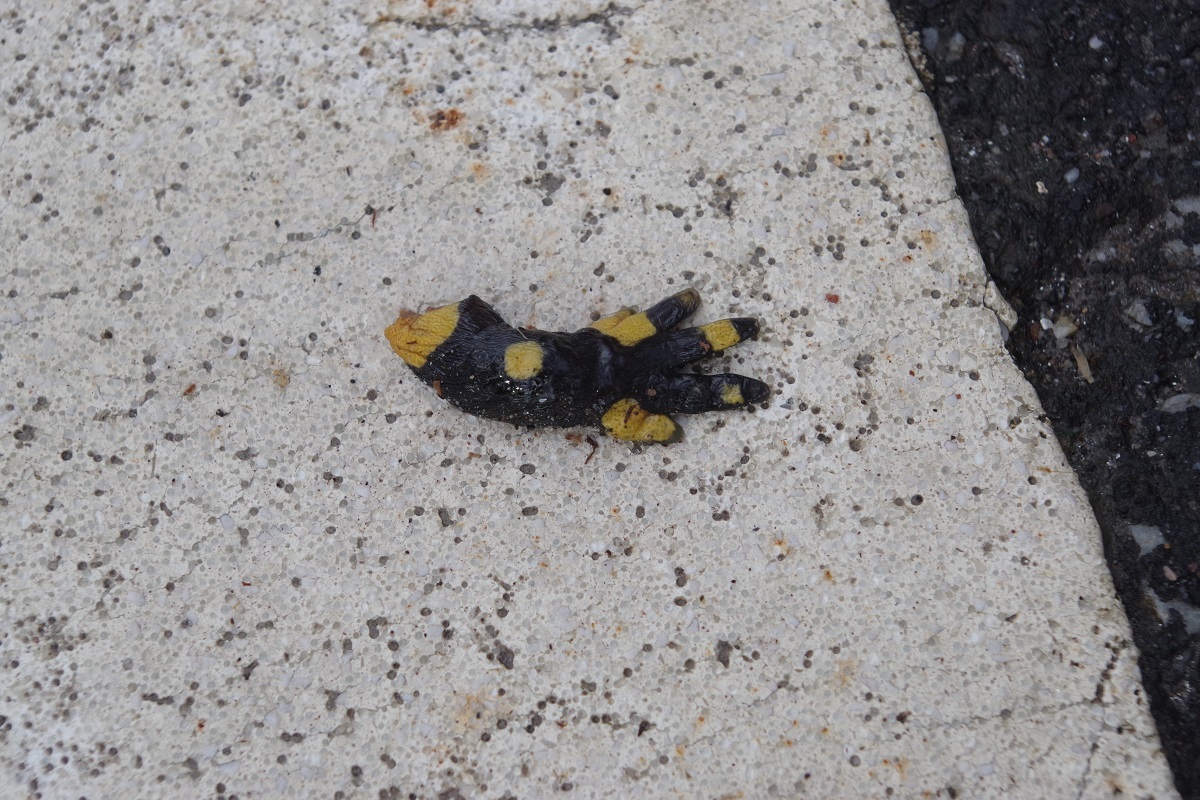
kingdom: Animalia
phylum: Chordata
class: Amphibia
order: Caudata
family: Salamandridae
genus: Salamandra
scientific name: Salamandra salamandra
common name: Fire salamander
